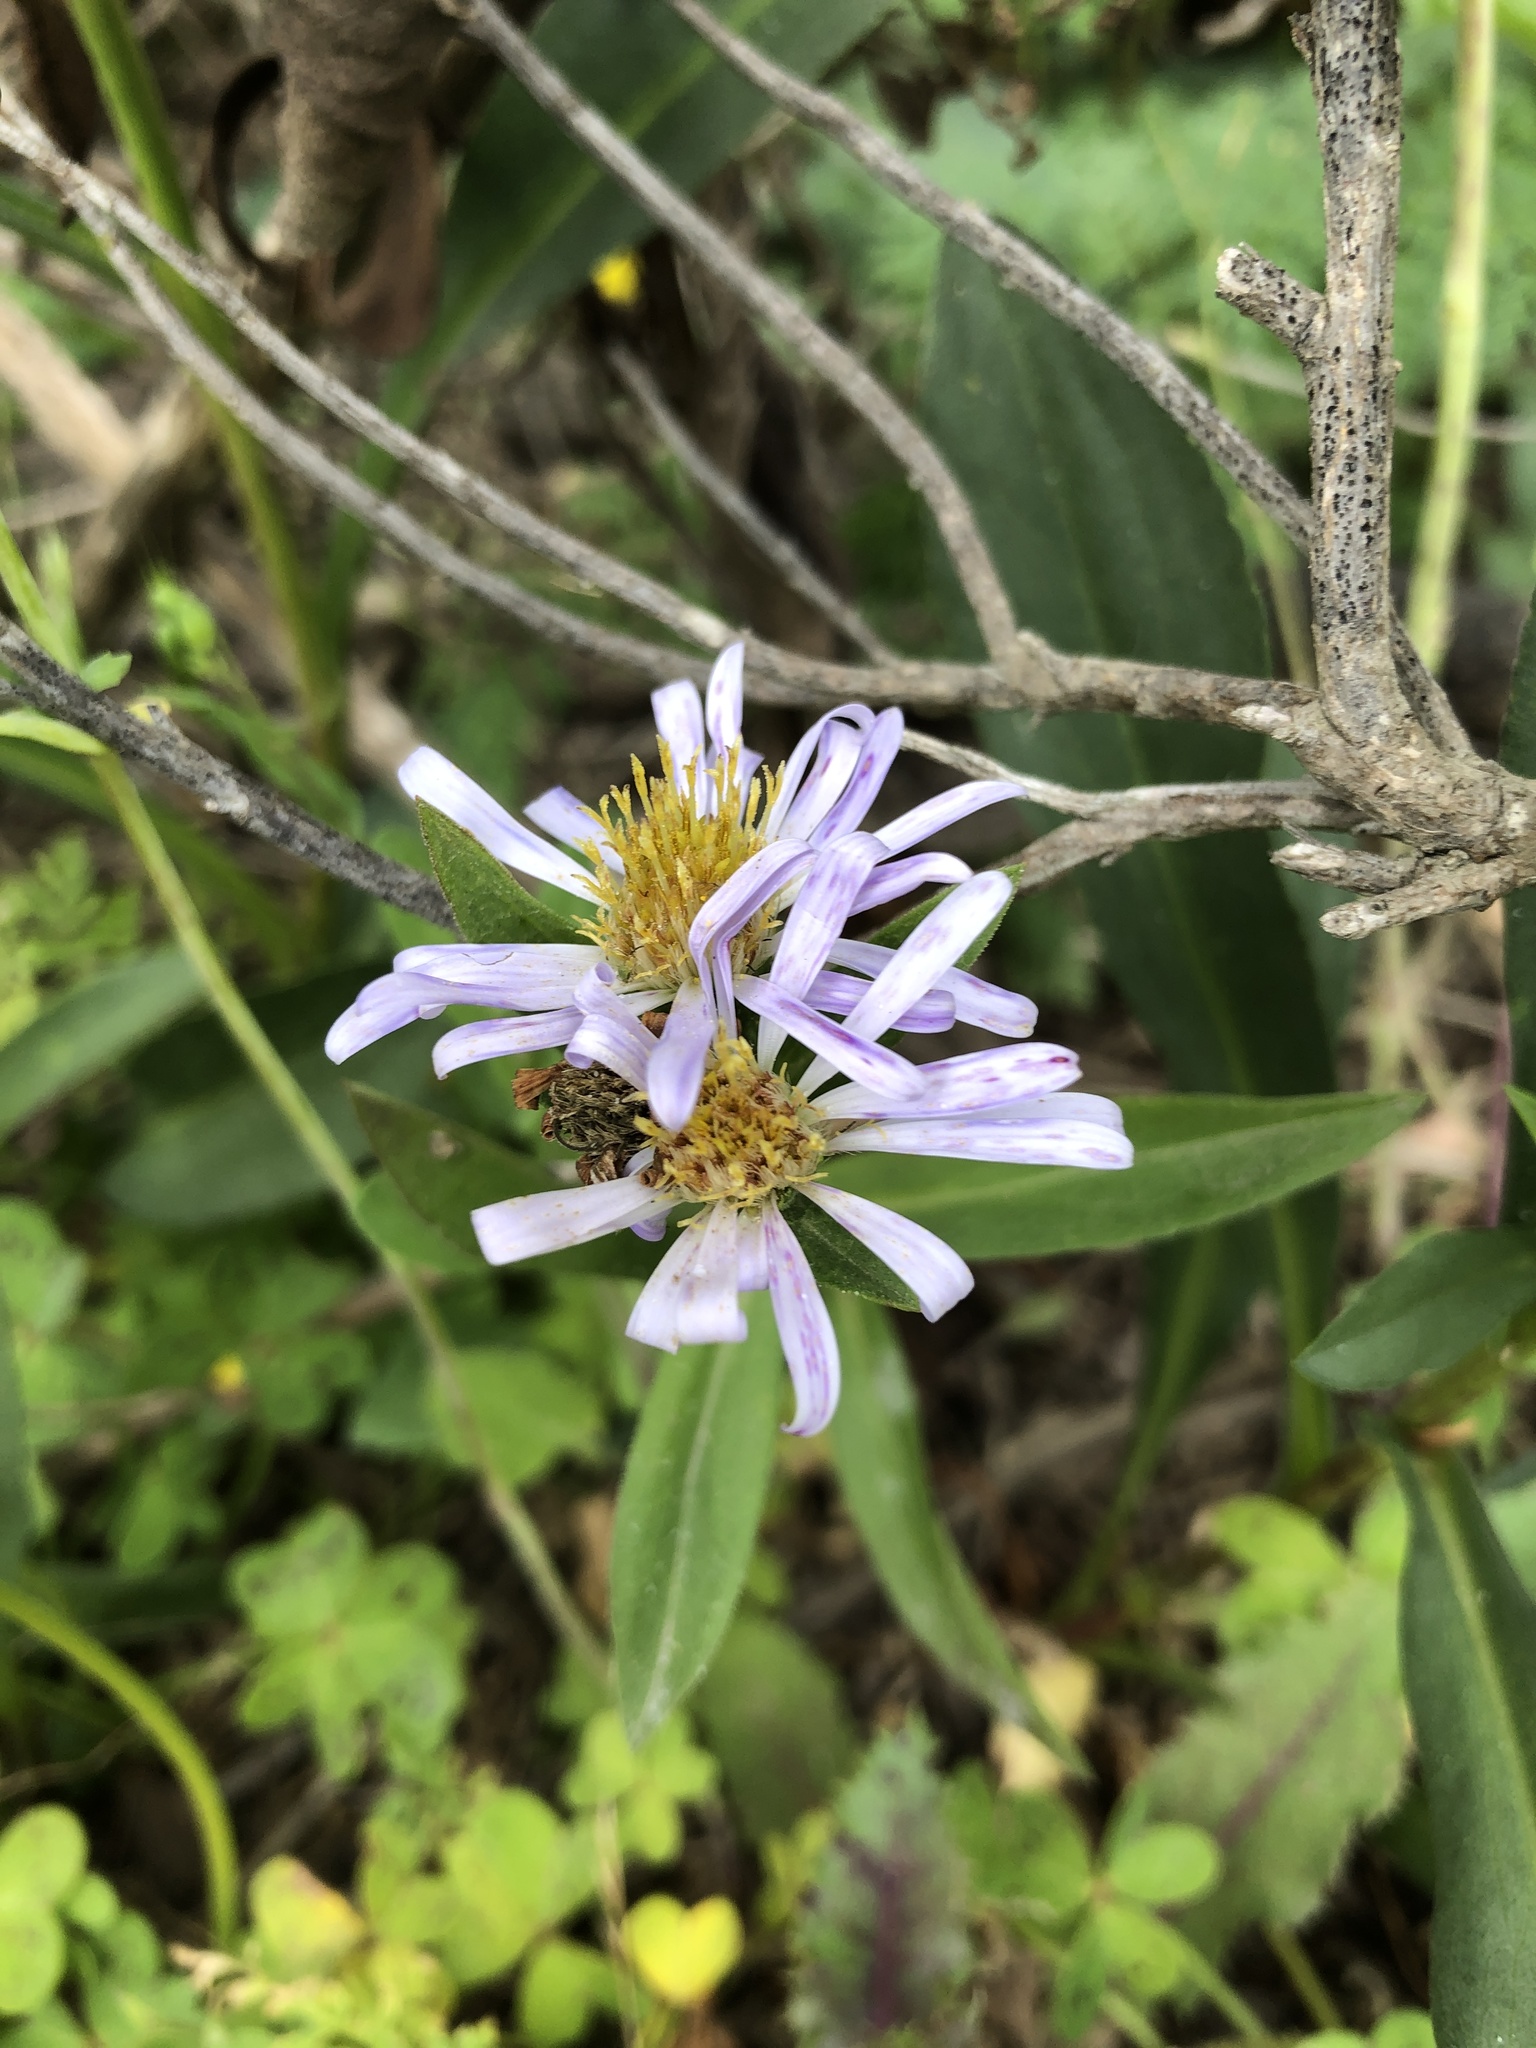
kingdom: Plantae
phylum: Tracheophyta
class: Magnoliopsida
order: Asterales
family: Asteraceae
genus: Symphyotrichum
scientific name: Symphyotrichum chilense
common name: Pacific aster
